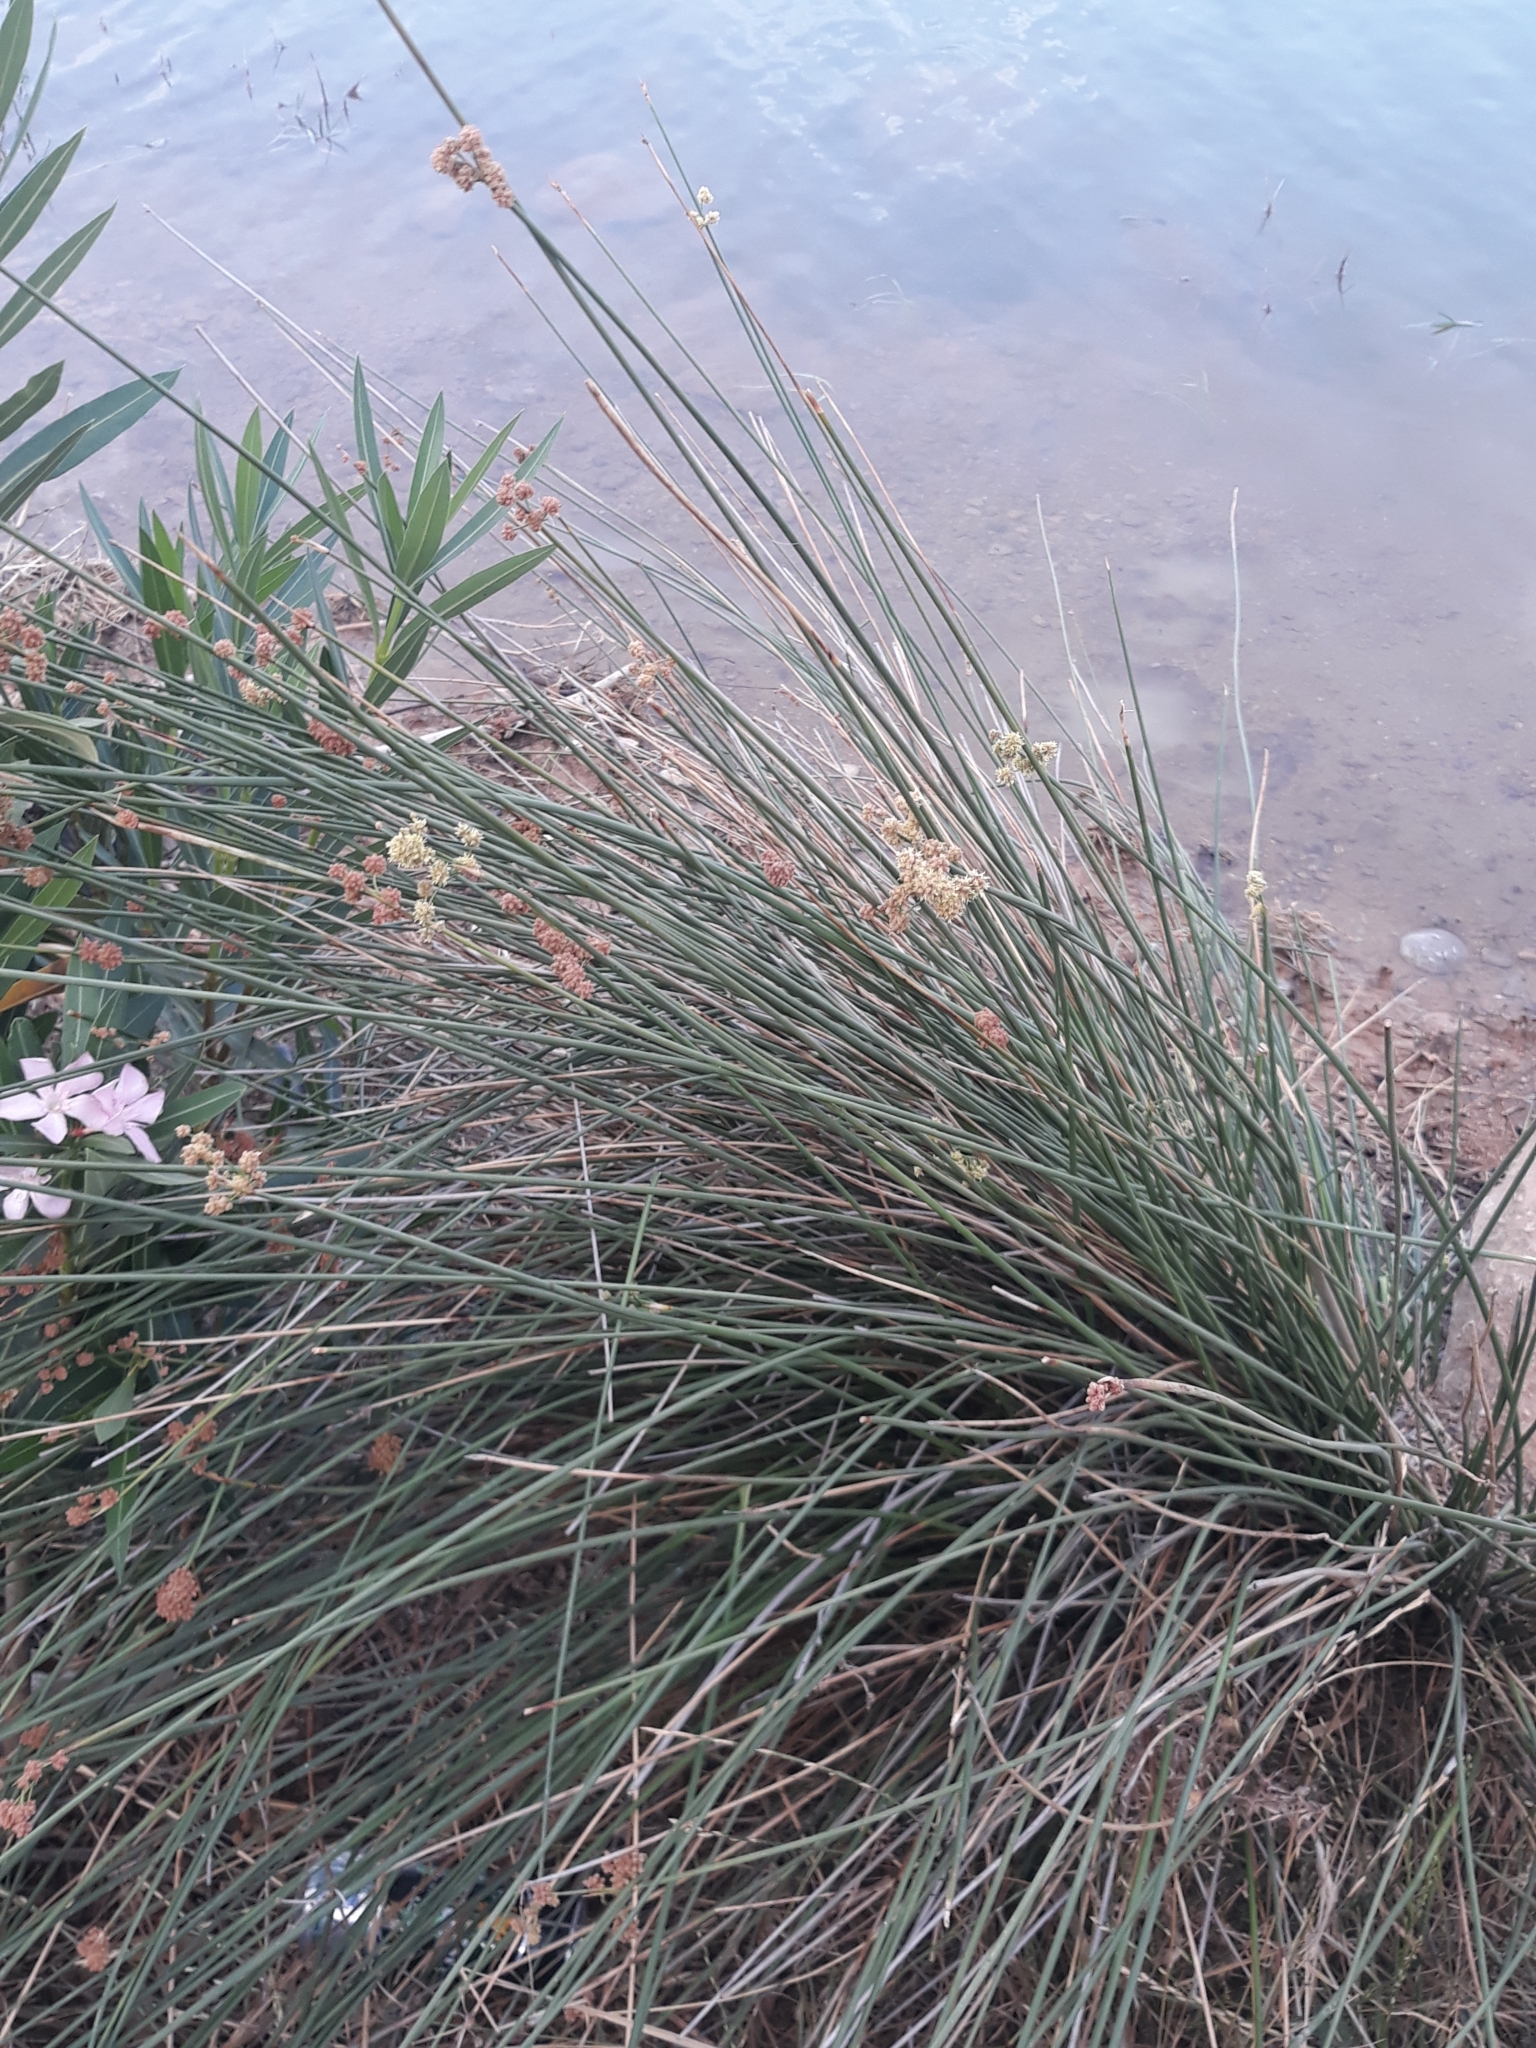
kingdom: Plantae
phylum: Tracheophyta
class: Liliopsida
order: Poales
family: Cyperaceae
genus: Scirpoides
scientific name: Scirpoides holoschoenus
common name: Round-headed club-rush
